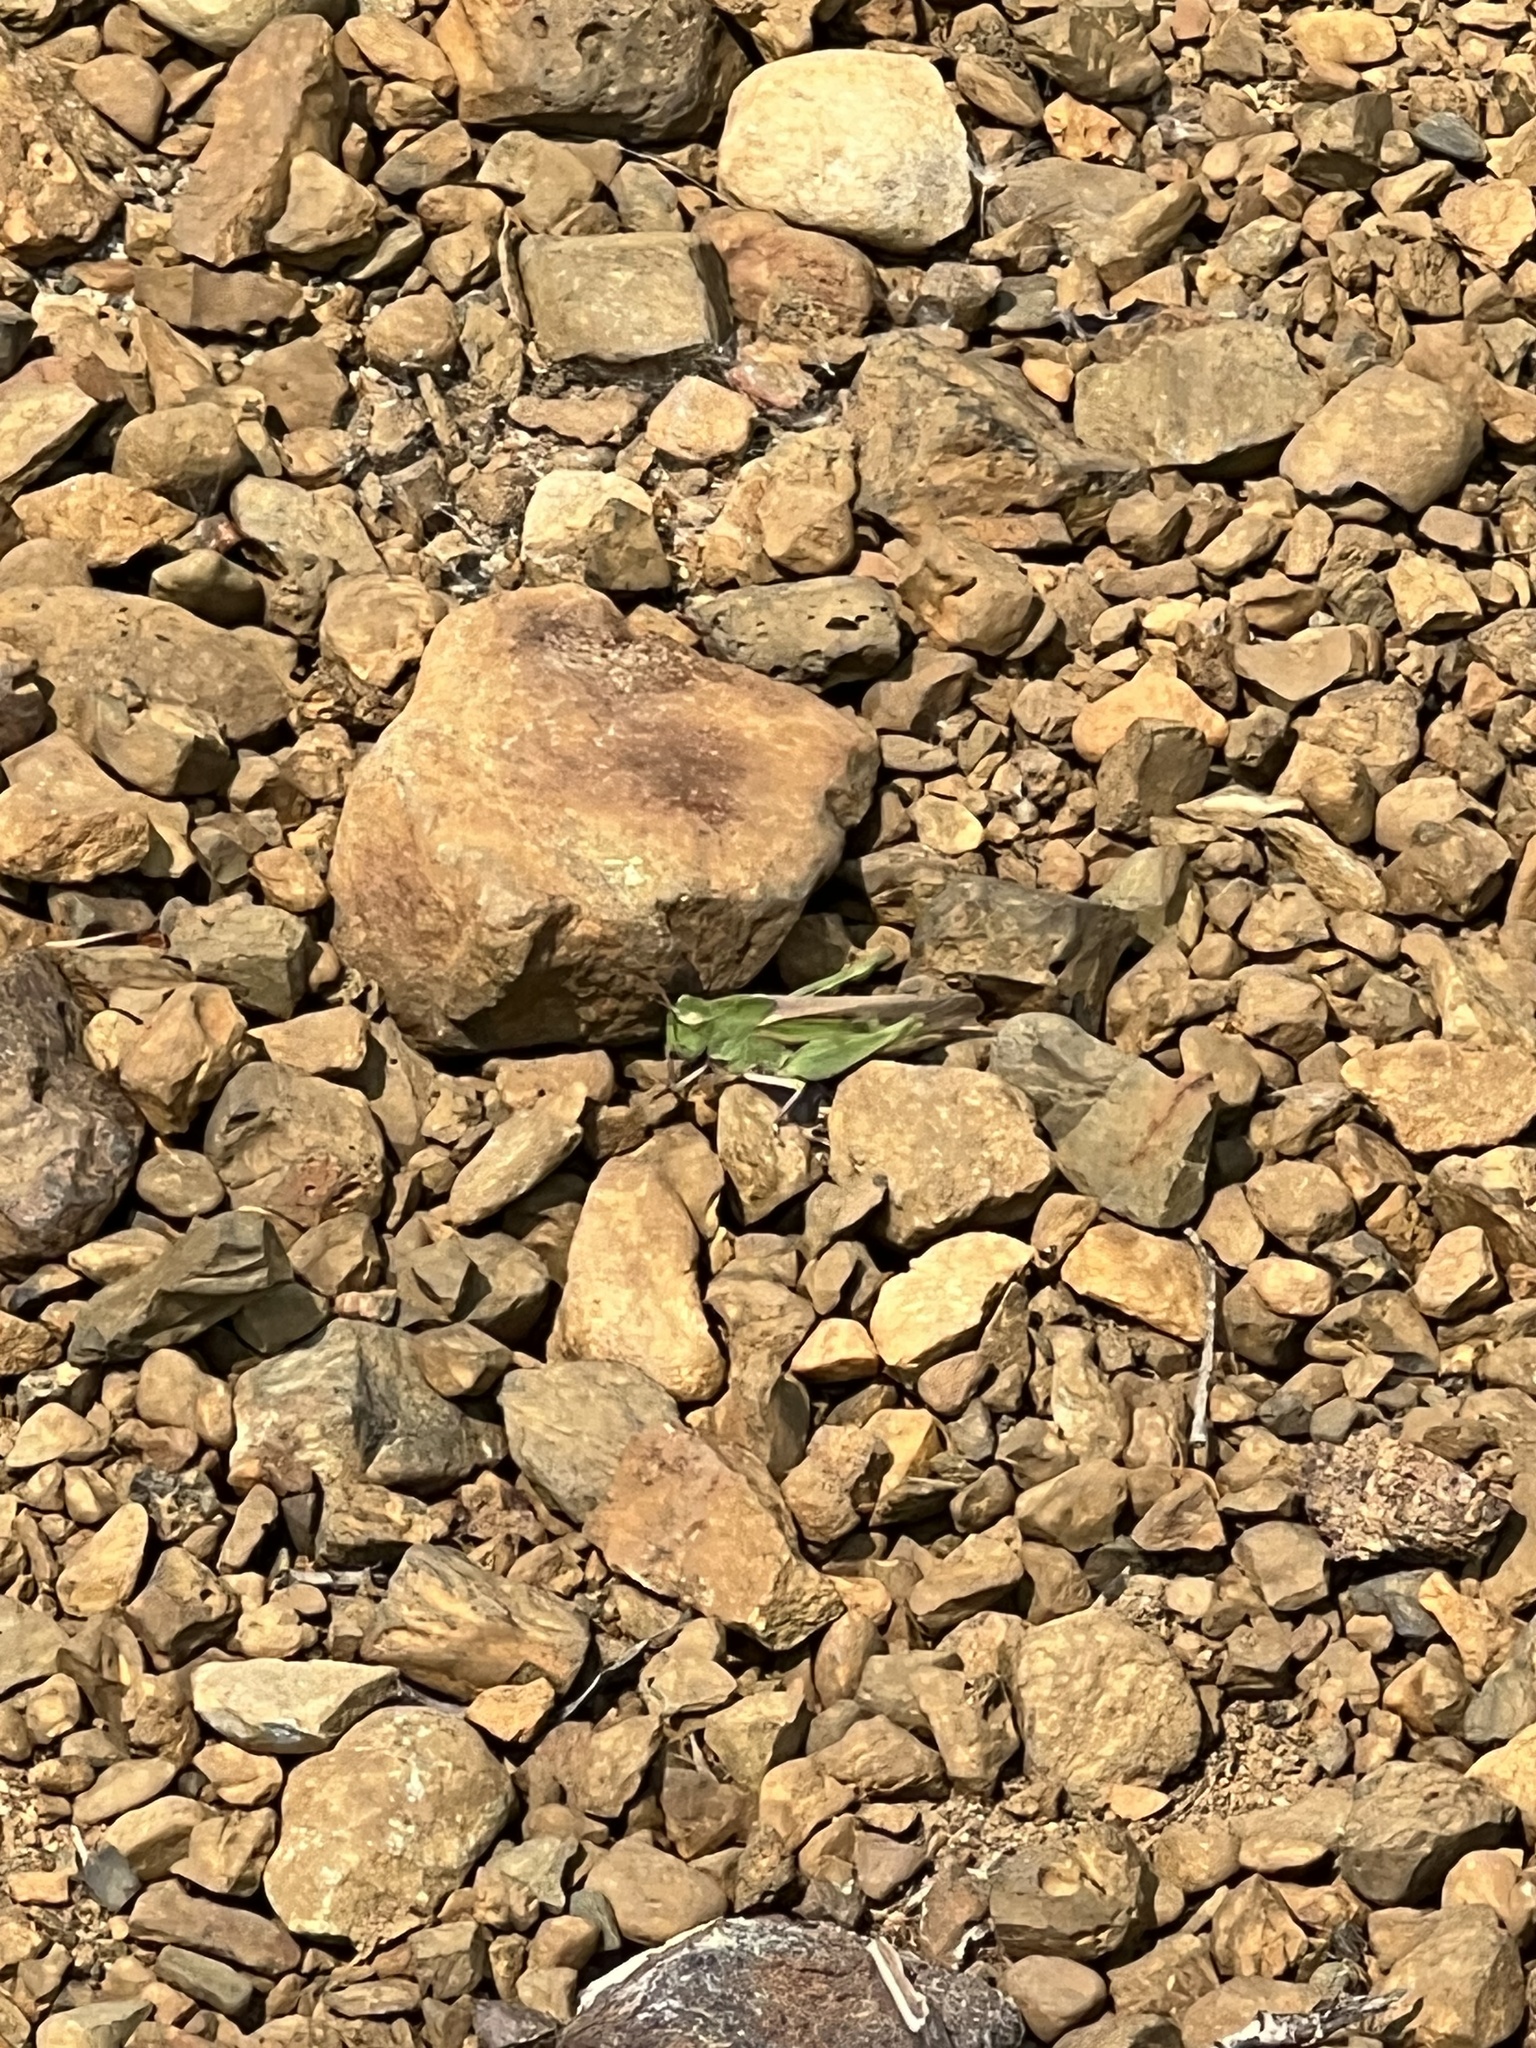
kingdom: Animalia
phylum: Arthropoda
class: Insecta
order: Orthoptera
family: Acrididae
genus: Chortophaga
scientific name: Chortophaga viridifasciata
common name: Green-striped grasshopper
